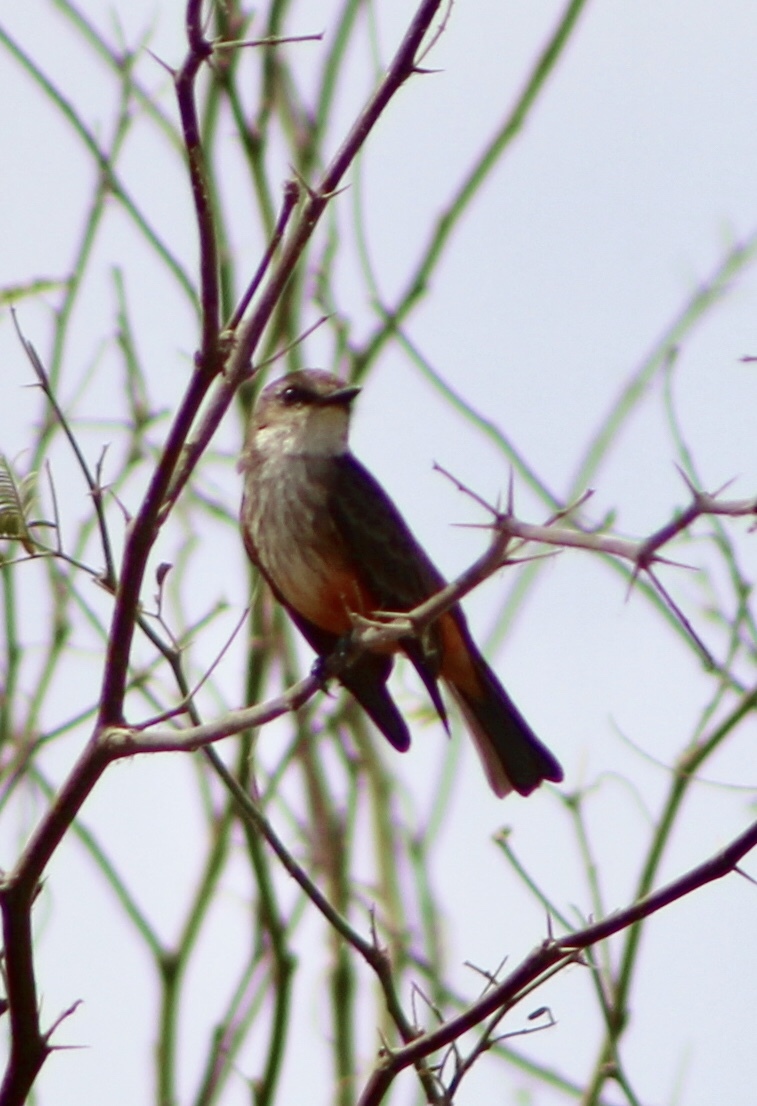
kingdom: Animalia
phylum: Chordata
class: Aves
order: Passeriformes
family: Tyrannidae
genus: Pyrocephalus
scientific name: Pyrocephalus rubinus
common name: Vermilion flycatcher
